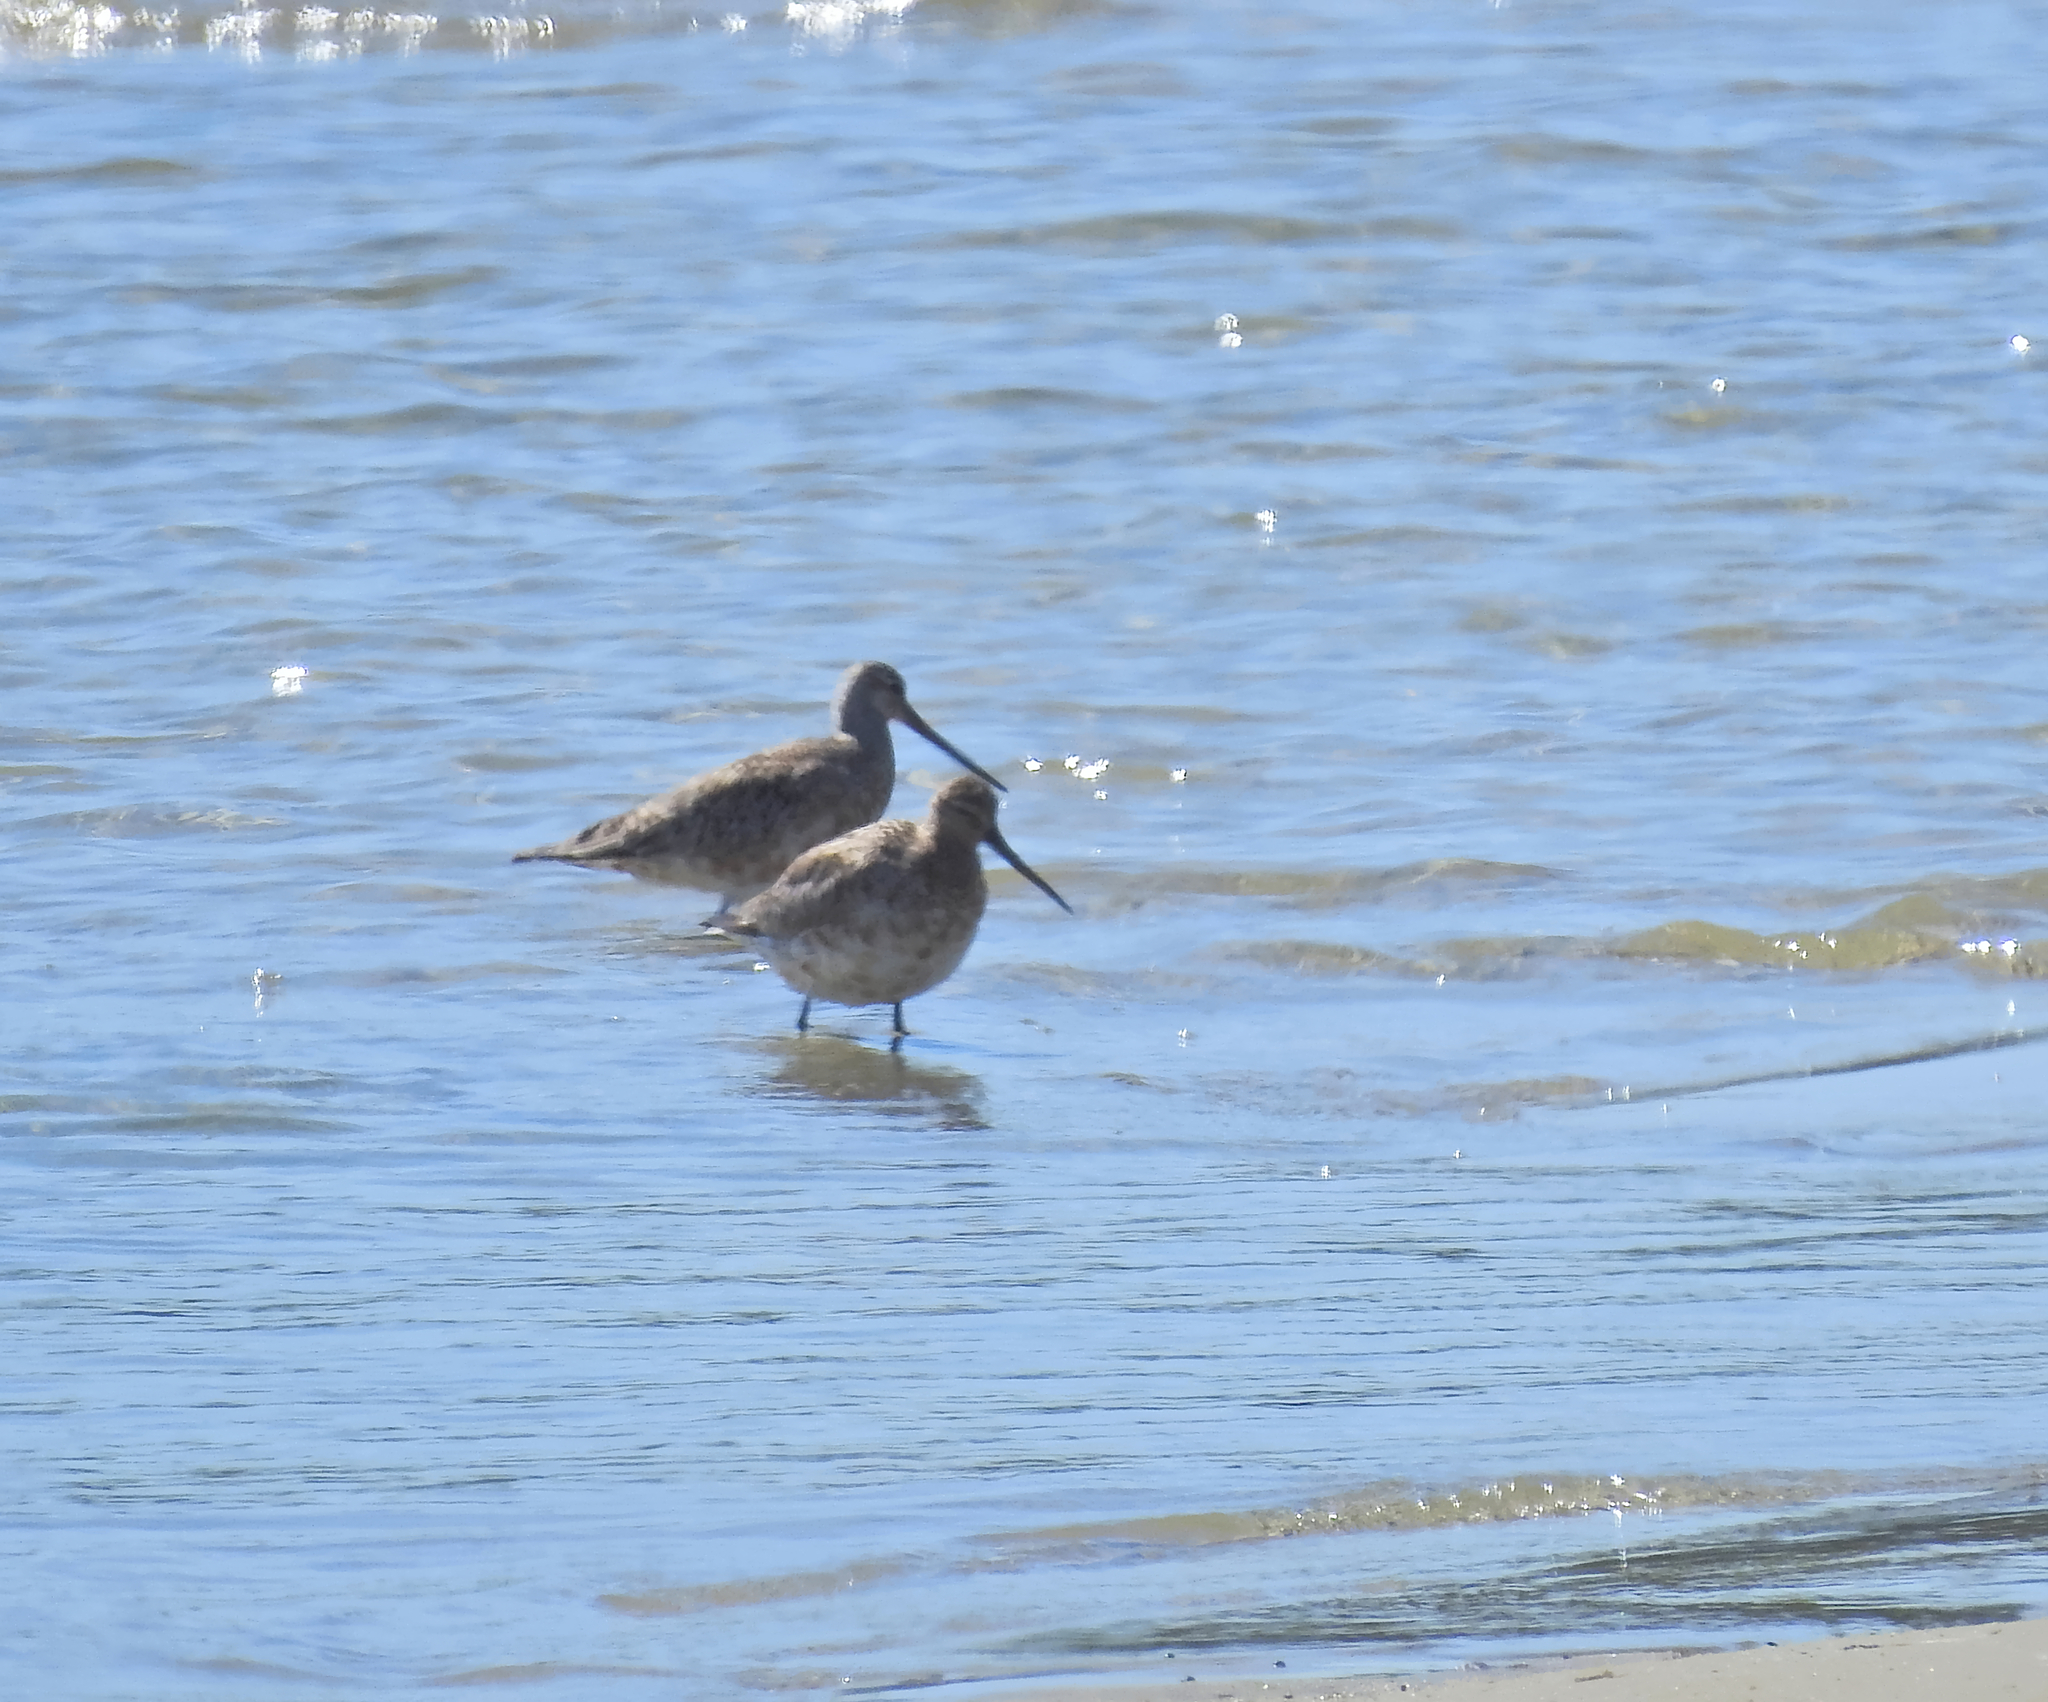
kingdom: Animalia
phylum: Chordata
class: Aves
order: Charadriiformes
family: Scolopacidae
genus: Limosa
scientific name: Limosa lapponica
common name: Bar-tailed godwit
